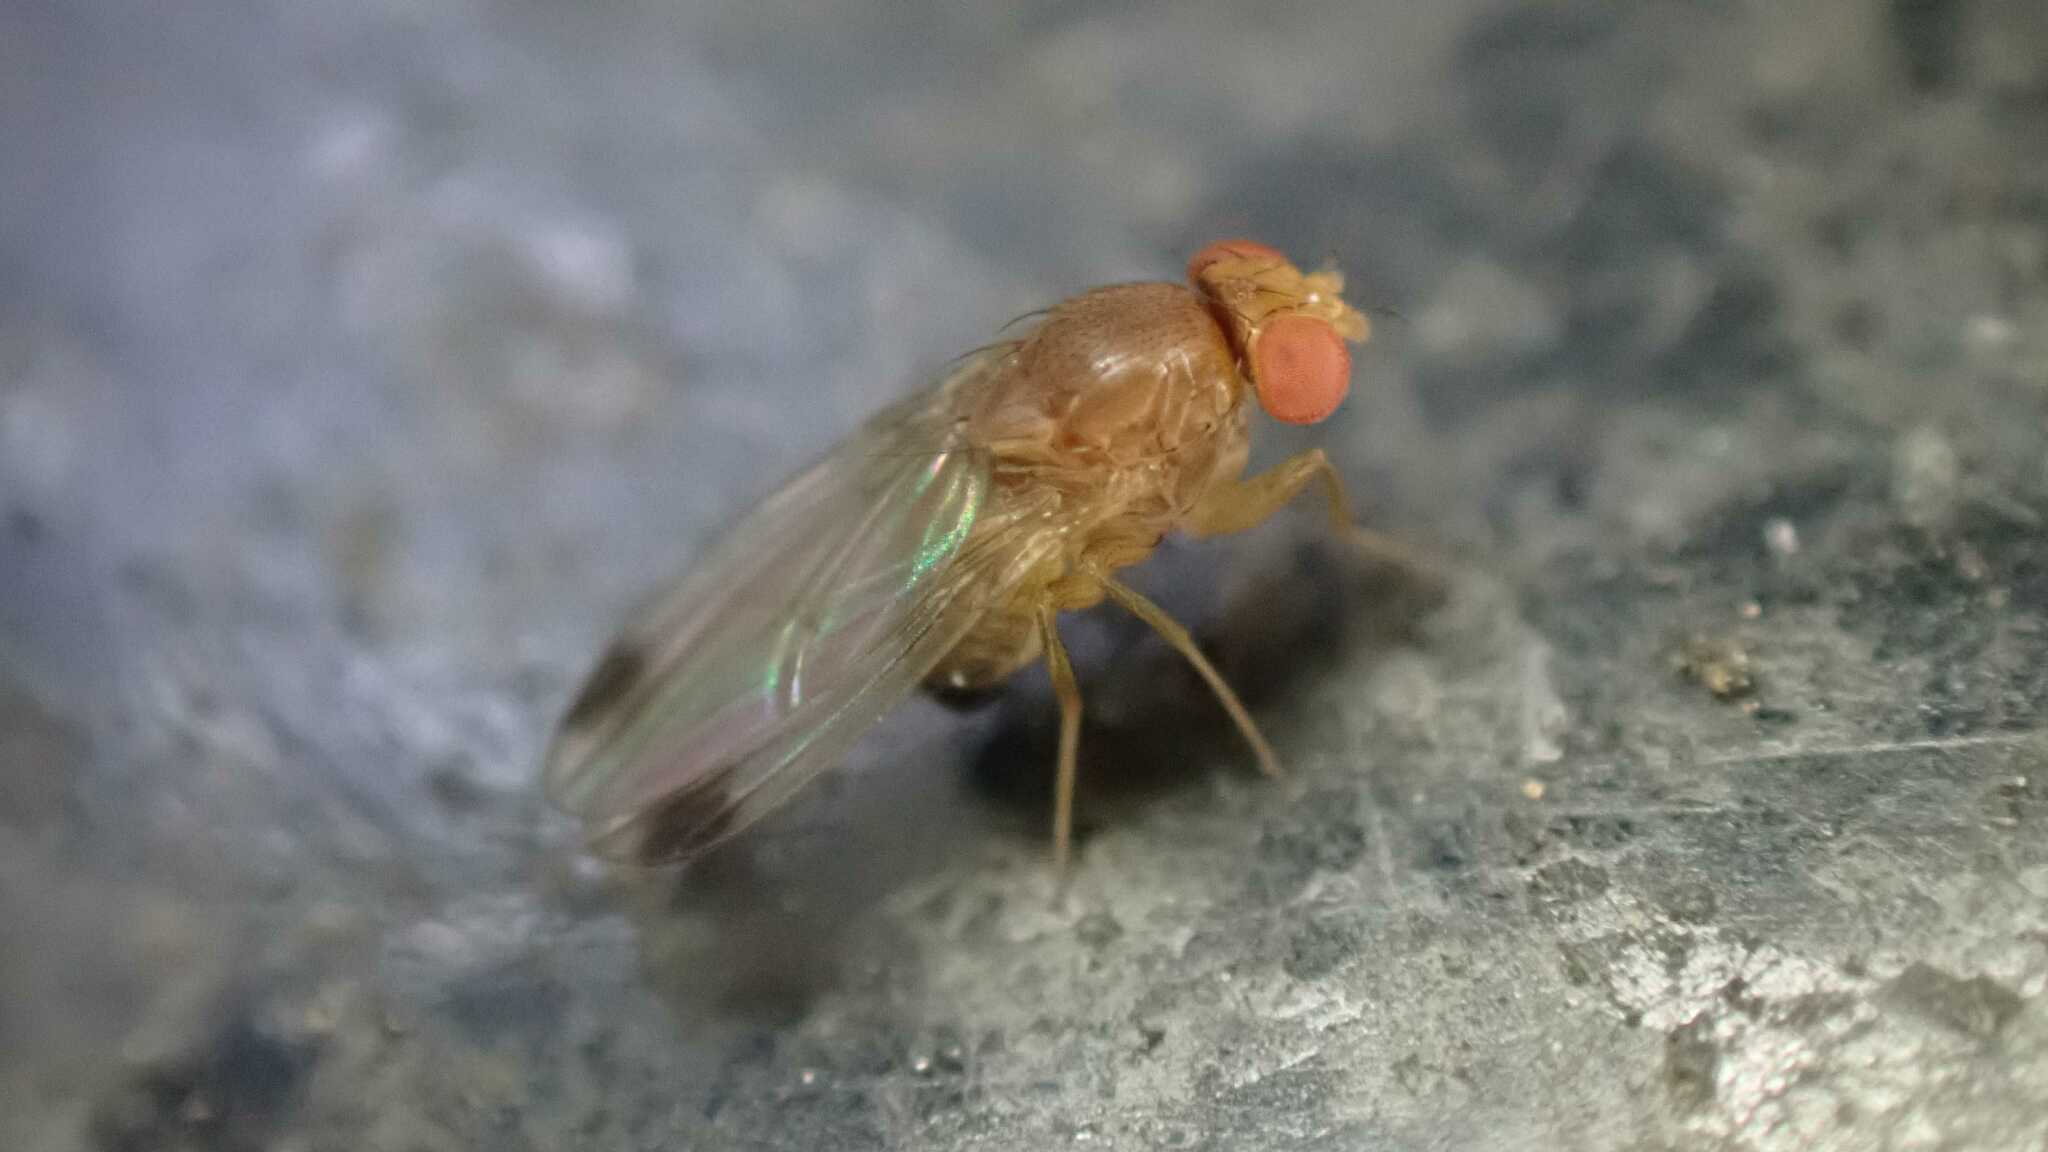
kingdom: Animalia
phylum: Arthropoda
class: Insecta
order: Diptera
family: Drosophilidae
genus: Drosophila
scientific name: Drosophila suzukii
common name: Spotted-wing drosophila
